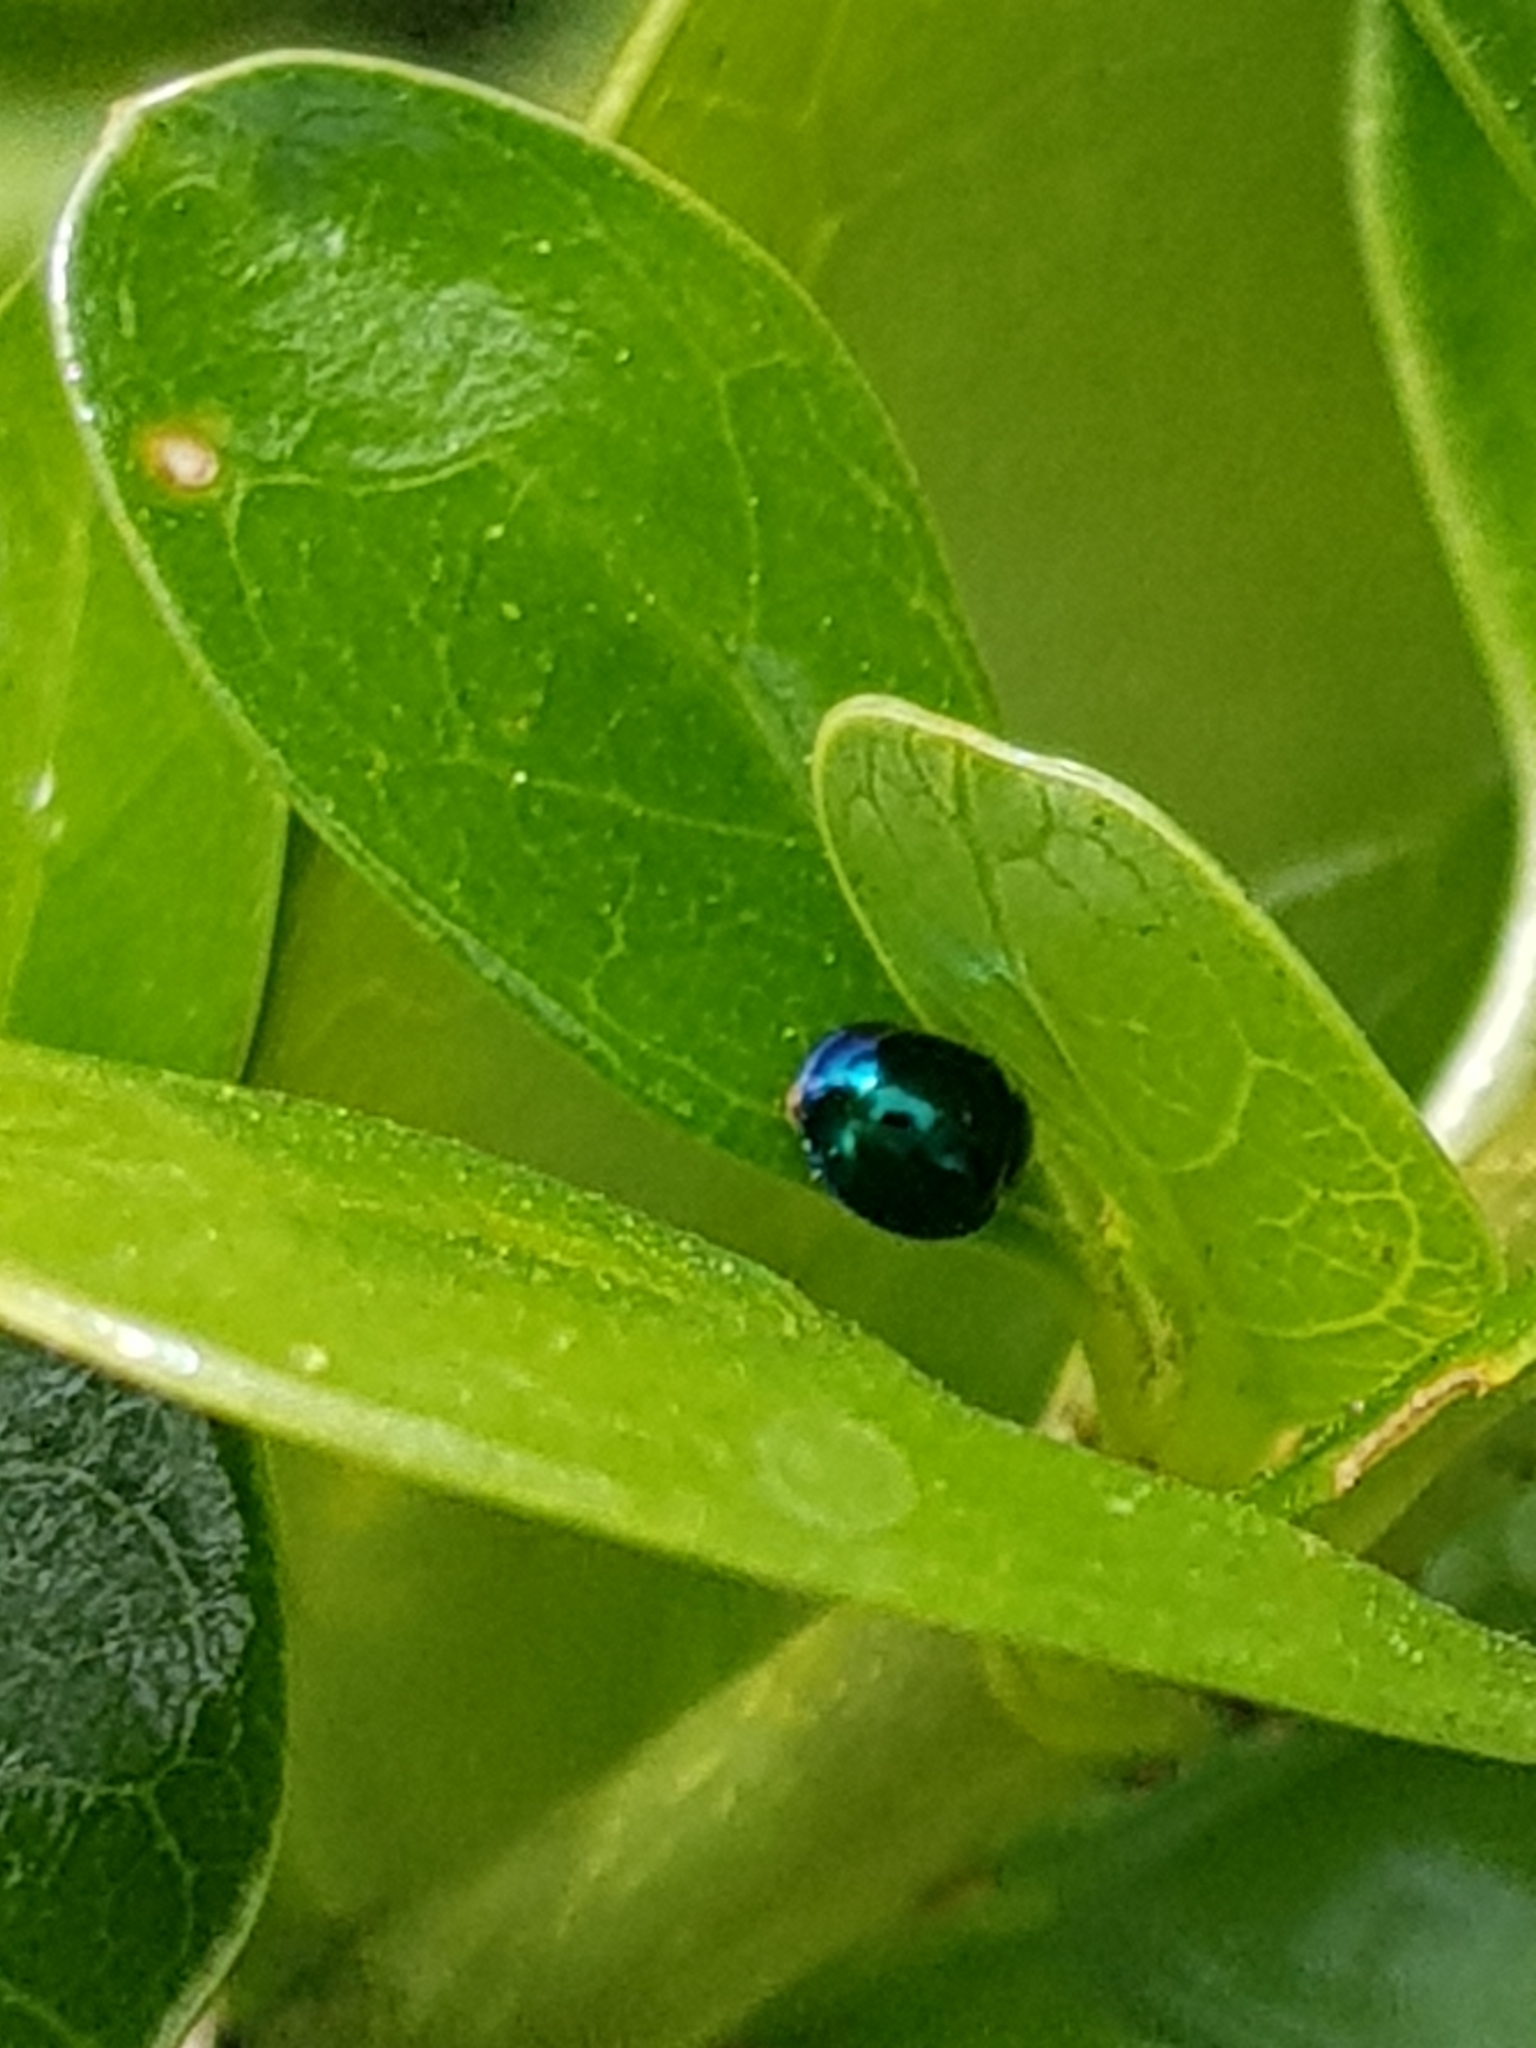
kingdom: Animalia
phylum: Arthropoda
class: Insecta
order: Coleoptera
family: Coccinellidae
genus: Halmus
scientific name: Halmus chalybeus
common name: Steel blue ladybird beetle
